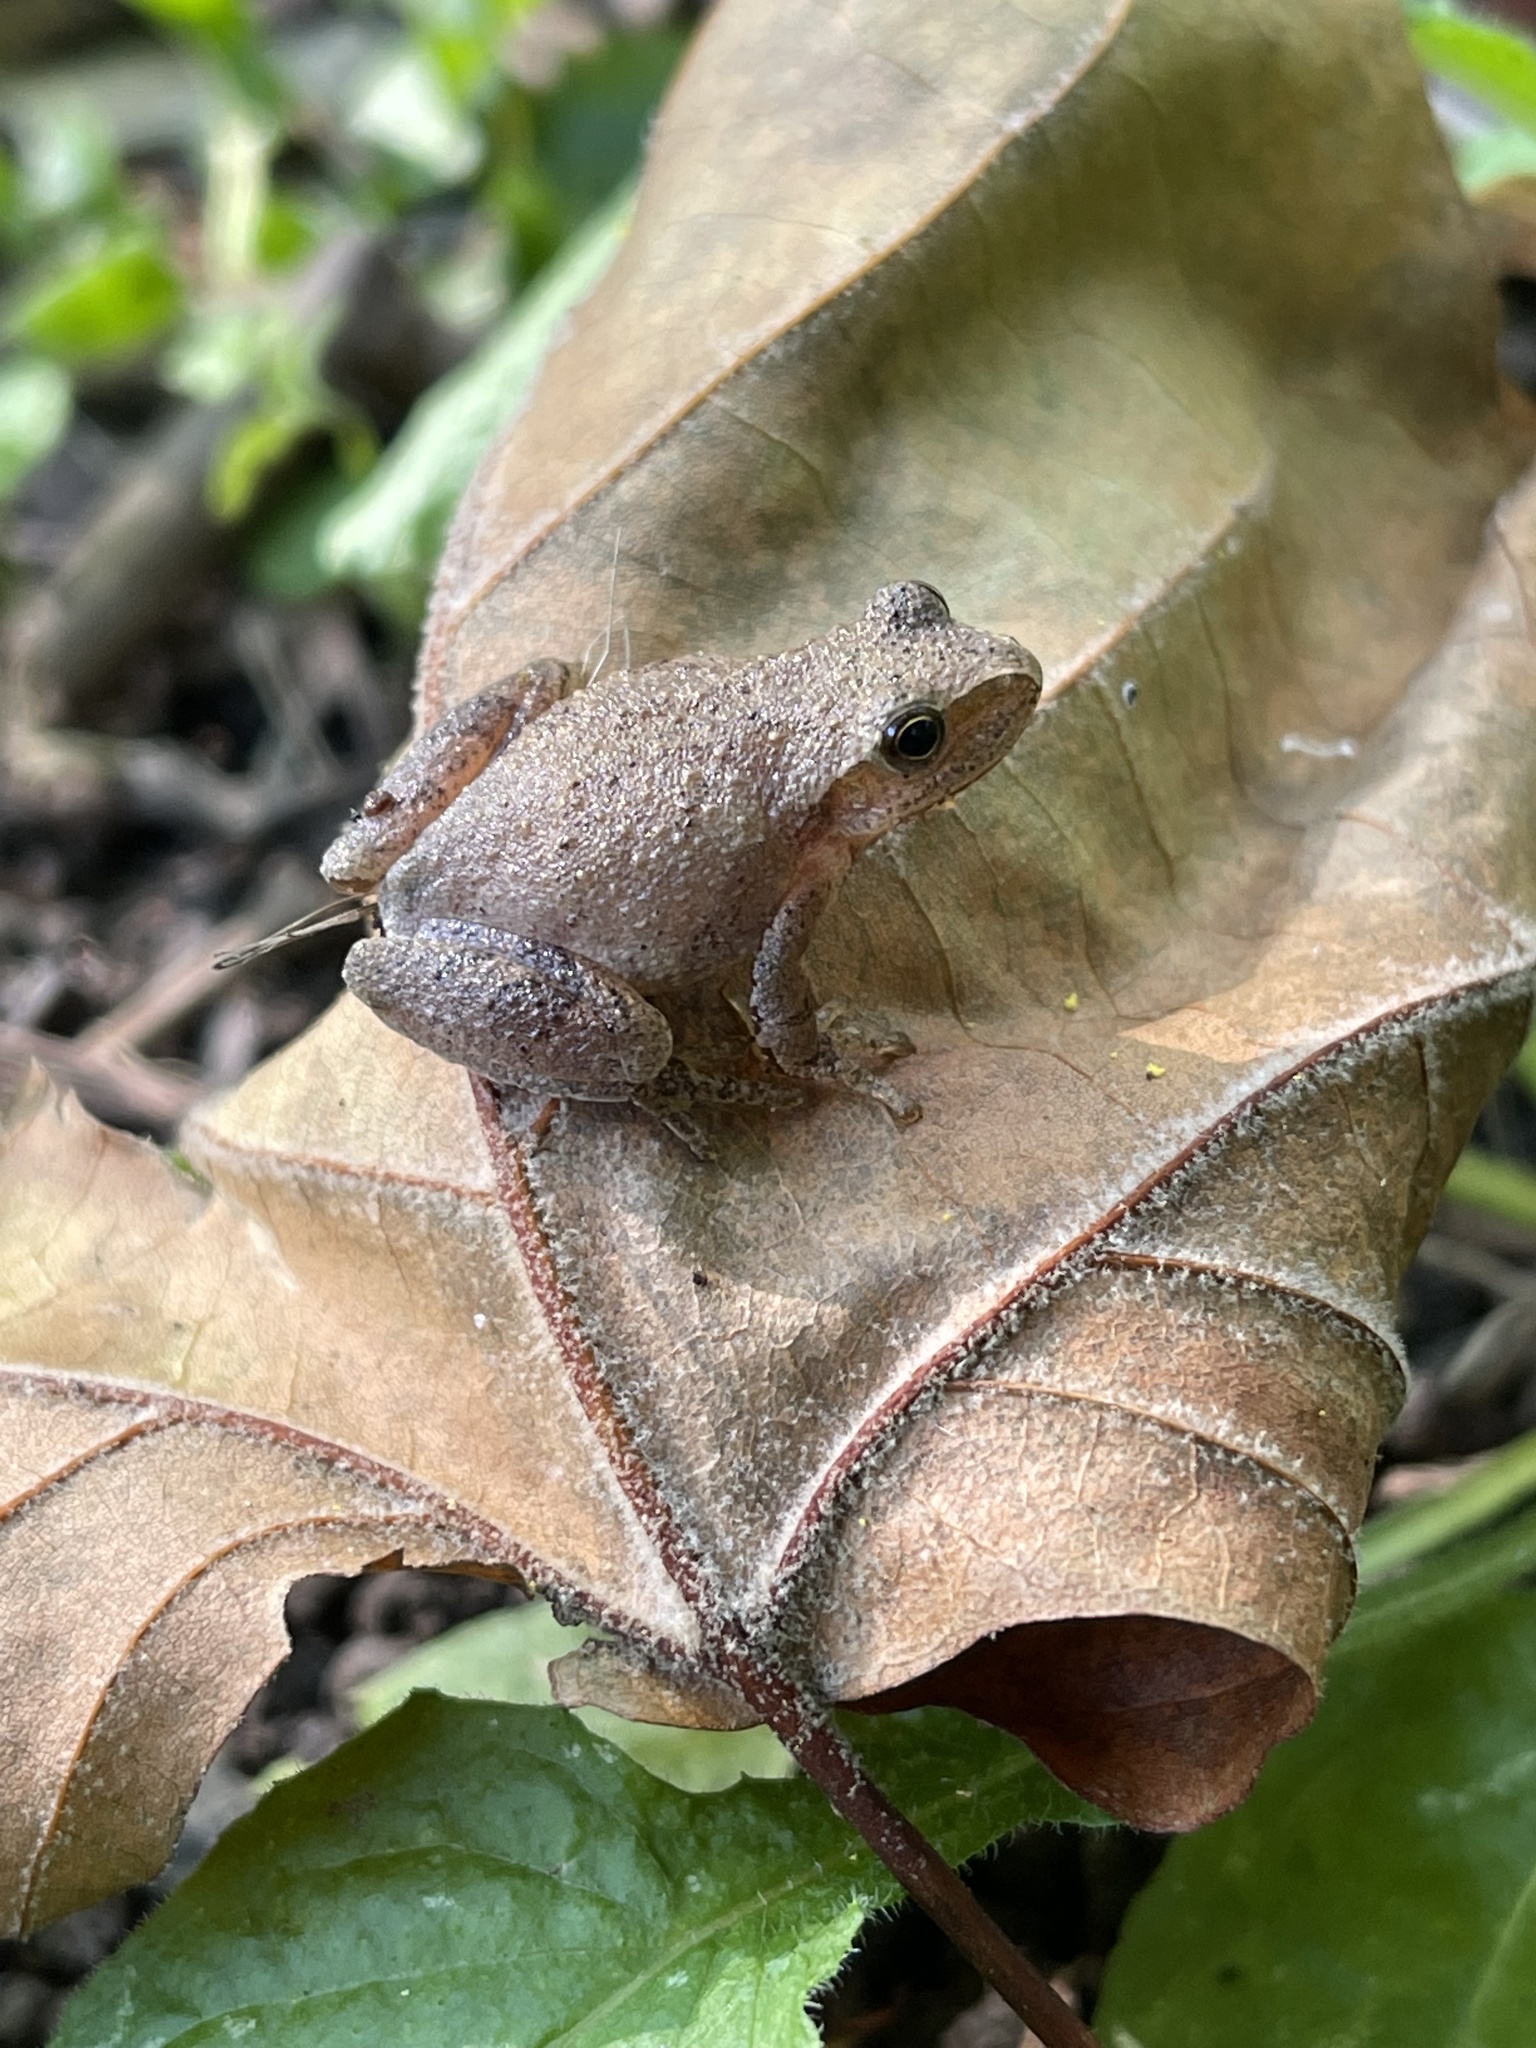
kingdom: Animalia
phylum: Chordata
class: Amphibia
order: Anura
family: Hylidae
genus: Pseudacris
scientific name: Pseudacris crucifer
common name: Spring peeper
